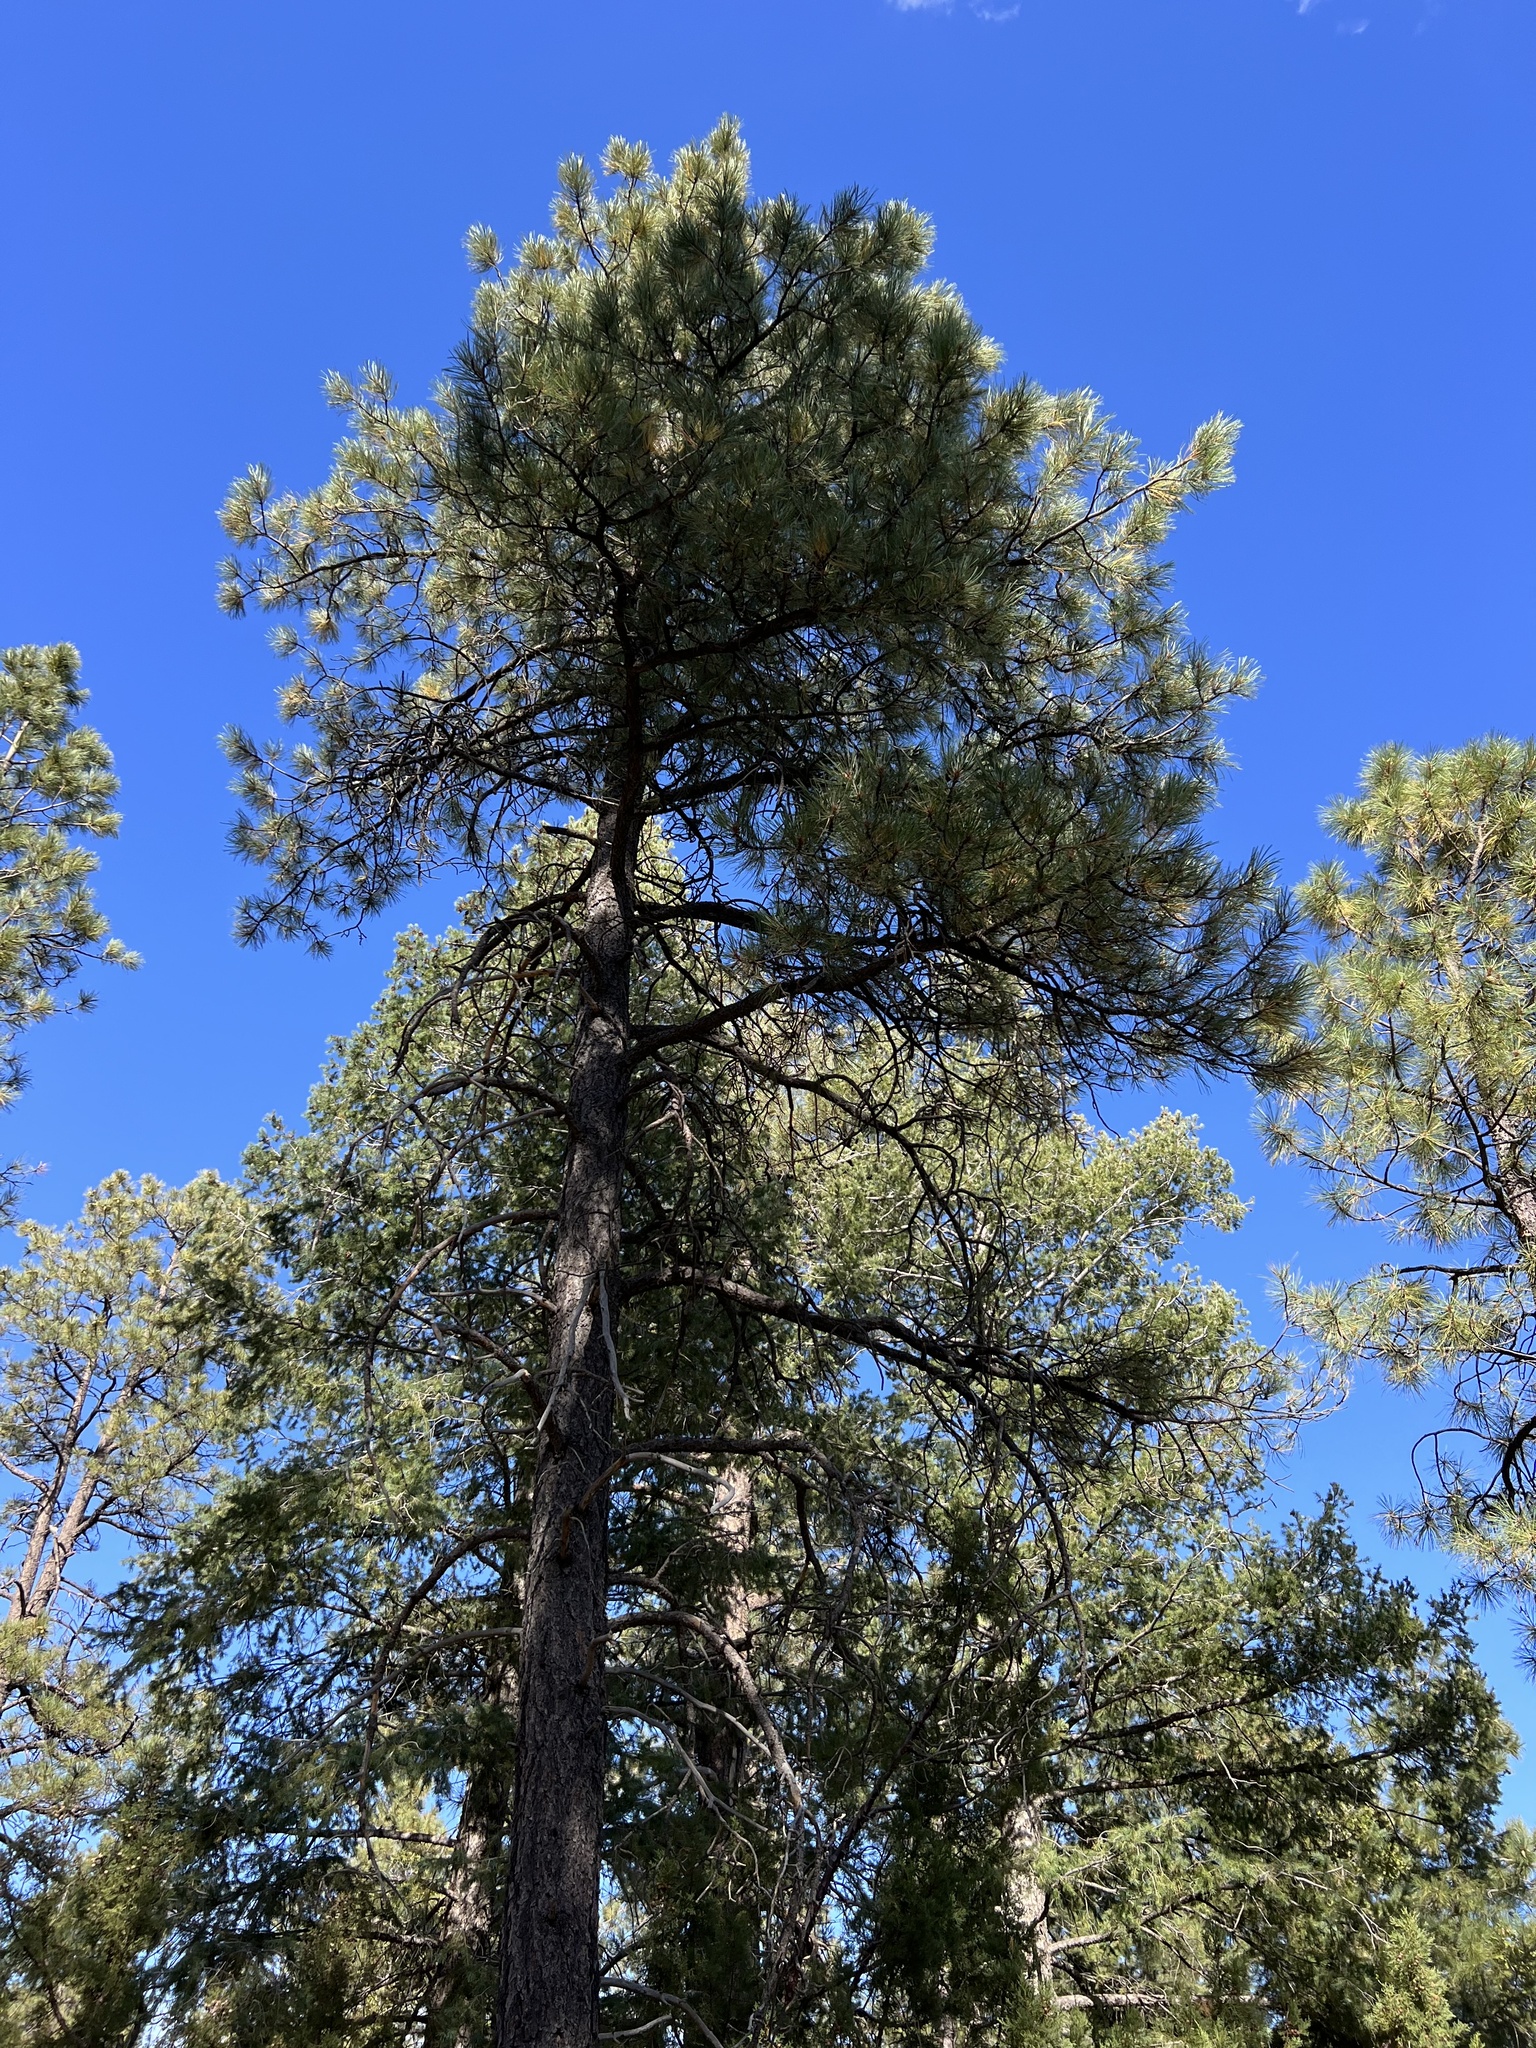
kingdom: Plantae
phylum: Tracheophyta
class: Pinopsida
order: Pinales
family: Pinaceae
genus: Pinus
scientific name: Pinus ponderosa
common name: Western yellow-pine
